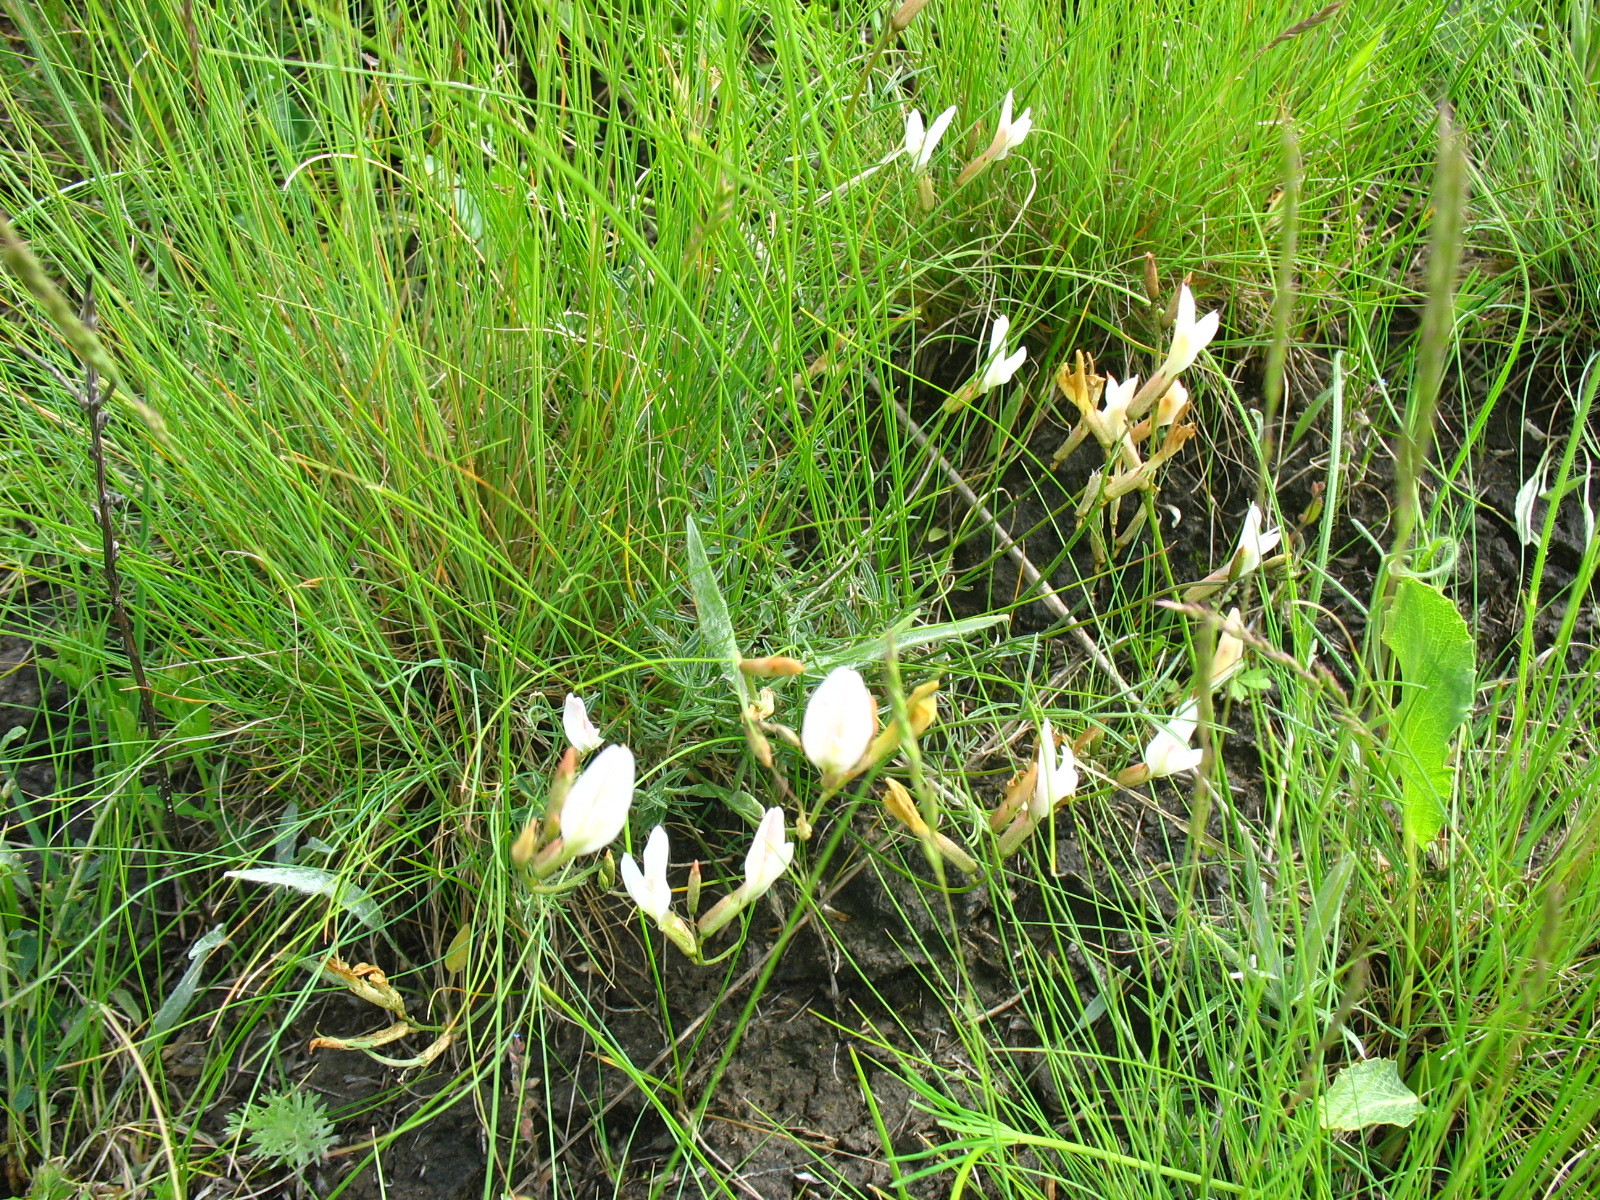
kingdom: Plantae
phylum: Tracheophyta
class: Magnoliopsida
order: Fabales
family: Fabaceae
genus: Astragalus
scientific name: Astragalus ucrainicus
